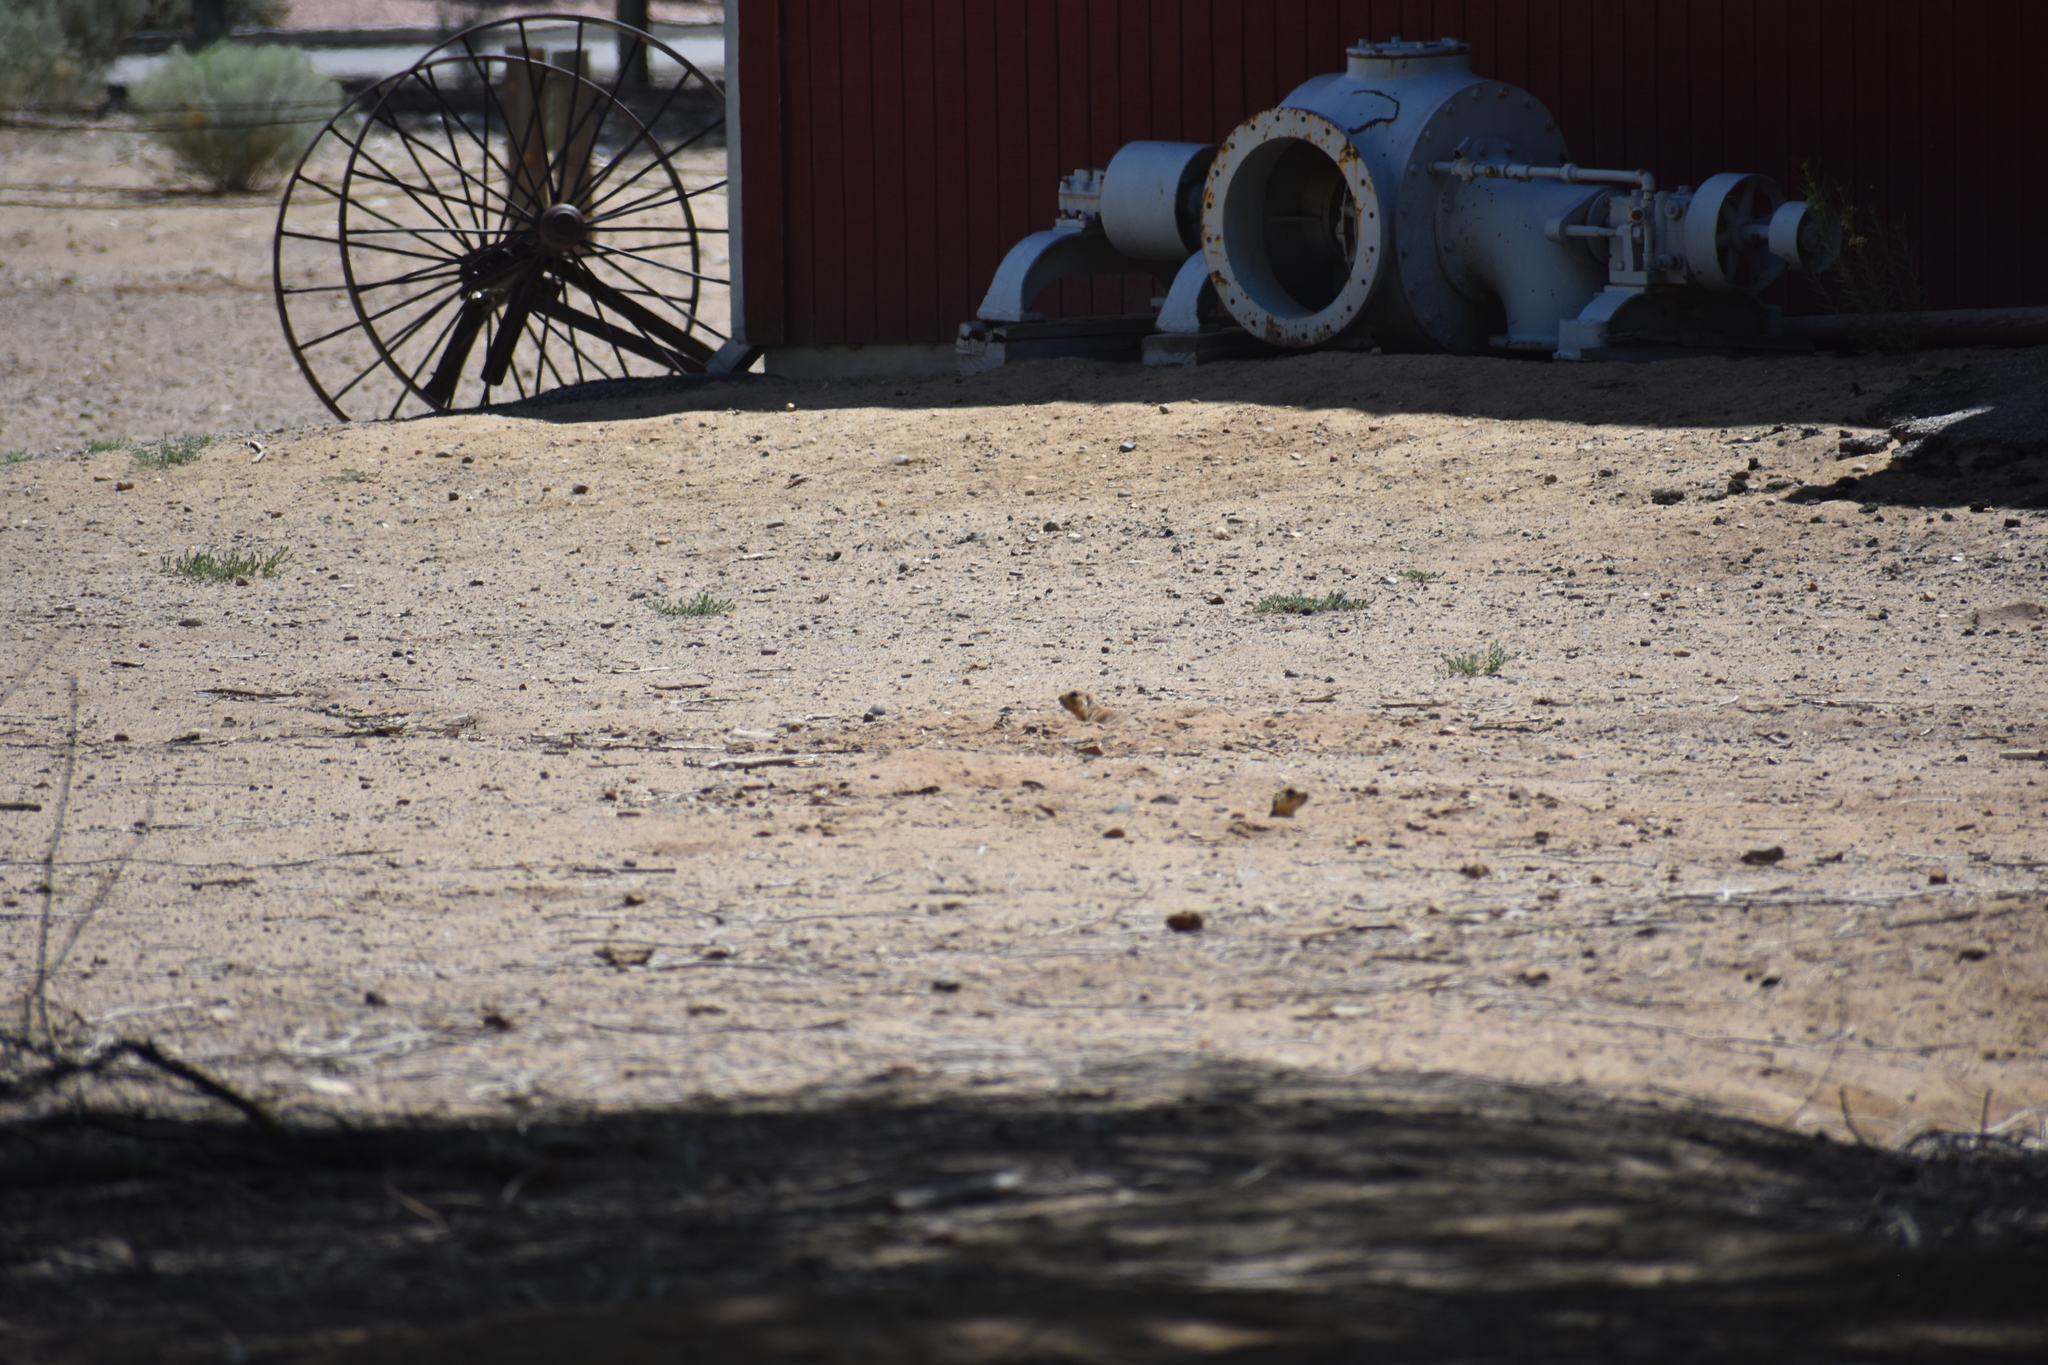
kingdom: Animalia
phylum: Chordata
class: Mammalia
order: Rodentia
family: Sciuridae
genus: Cynomys
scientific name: Cynomys gunnisoni
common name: Gunnison's prairie dog
